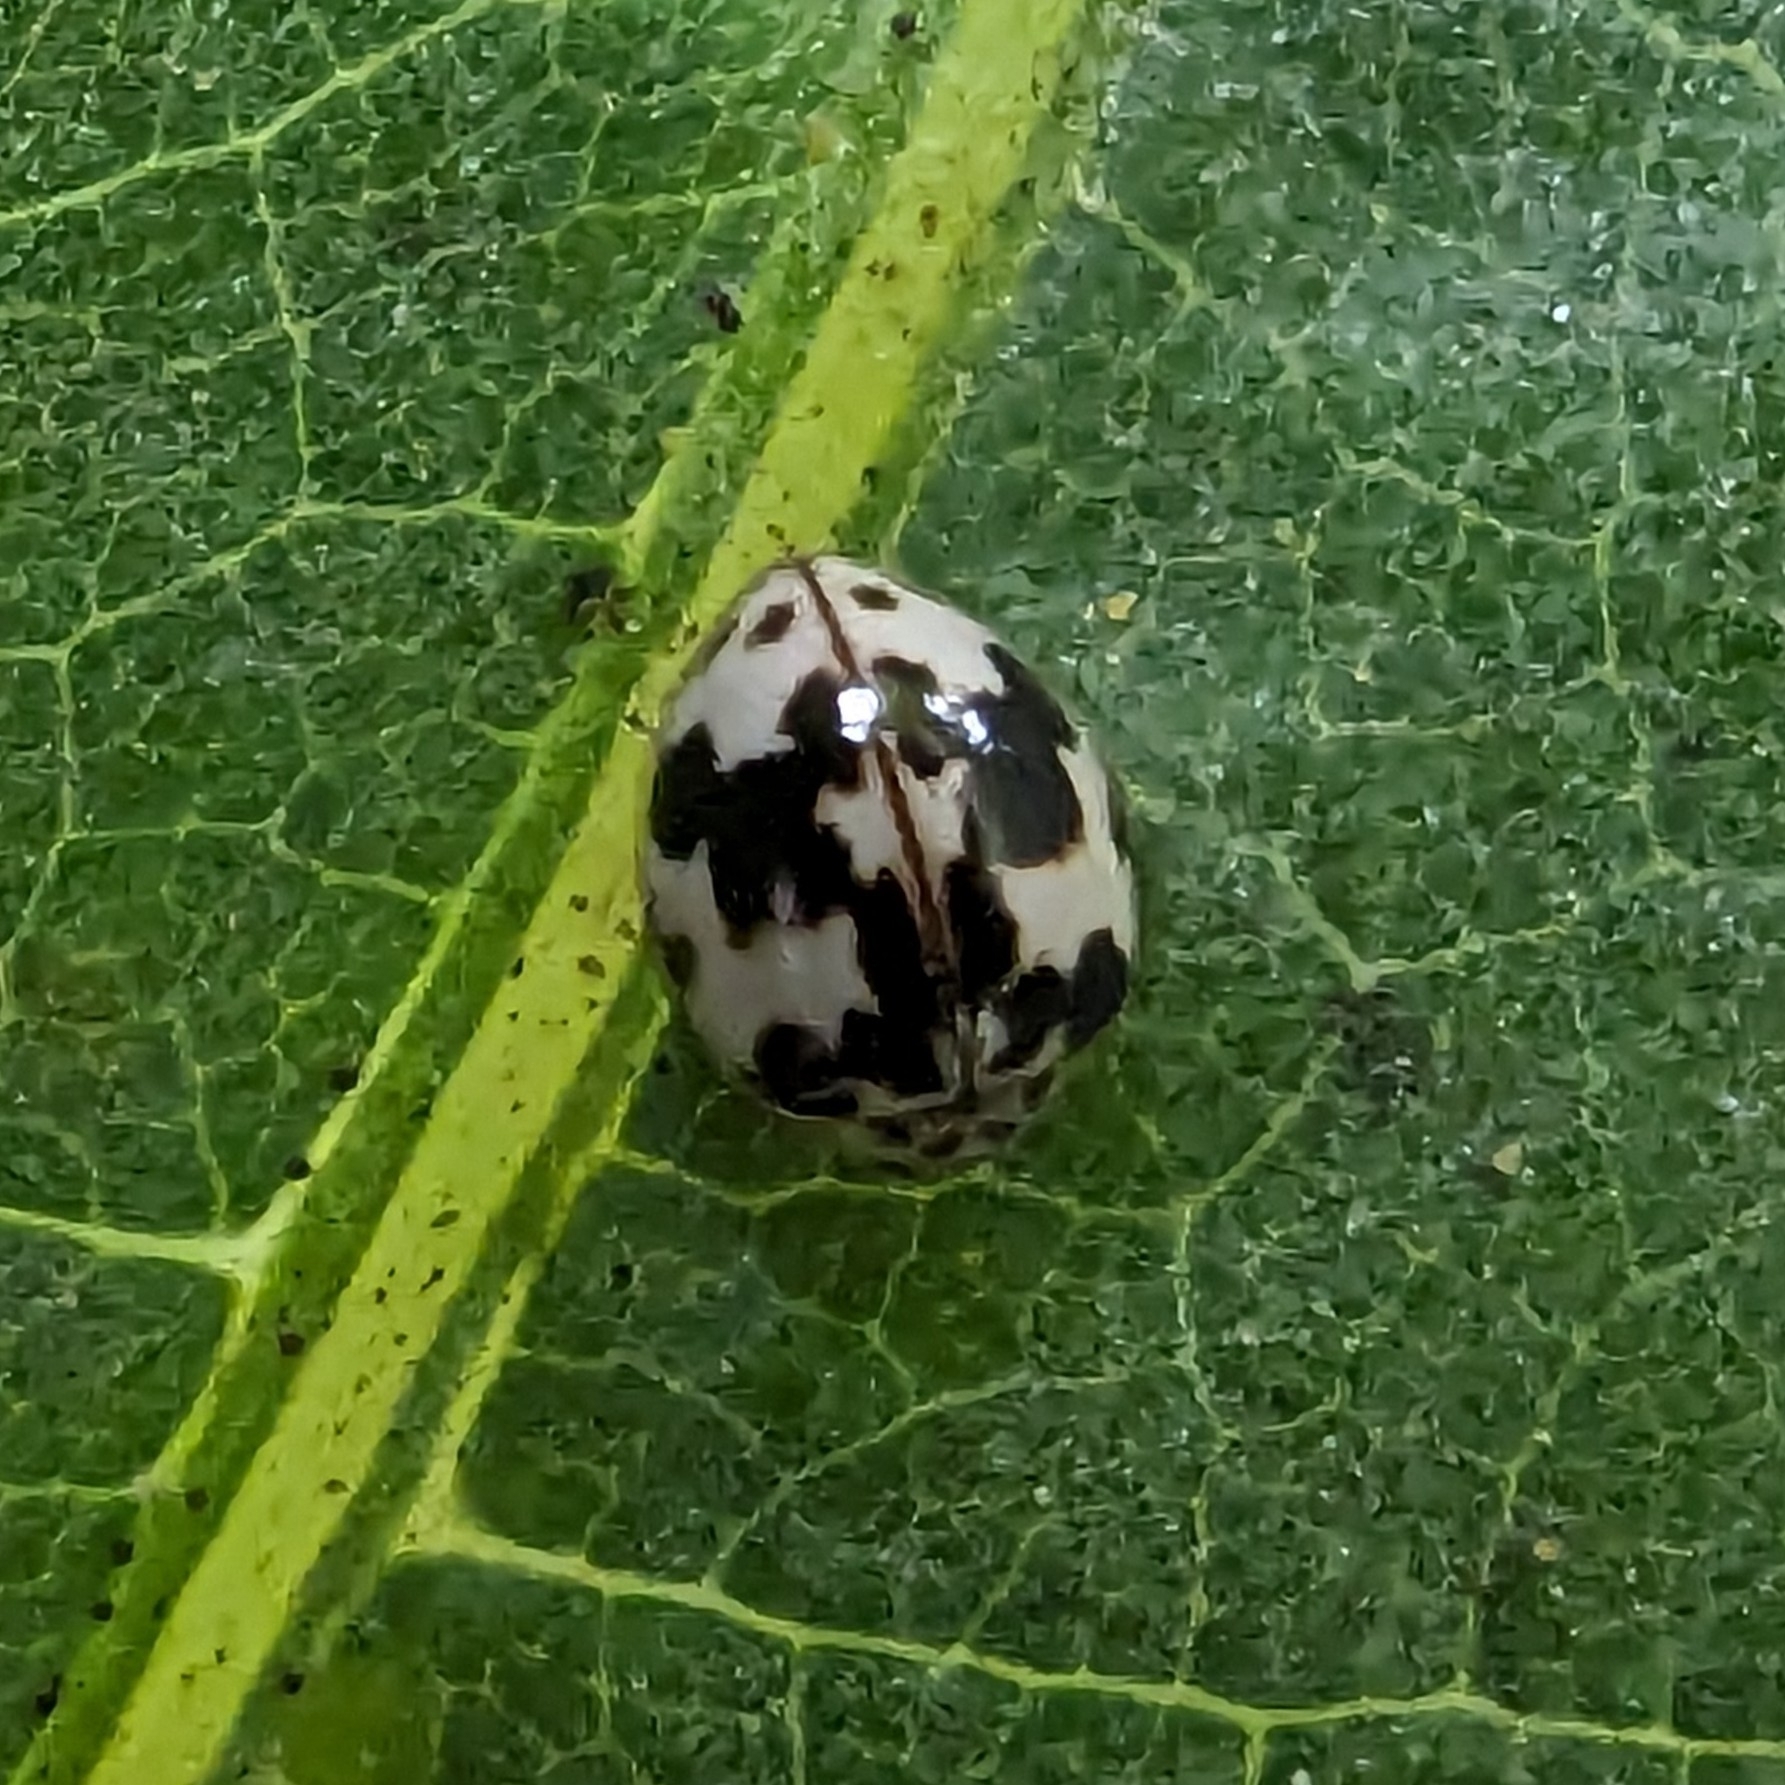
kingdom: Animalia
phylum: Arthropoda
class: Insecta
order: Coleoptera
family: Coccinellidae
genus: Psyllobora
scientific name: Psyllobora borealis
